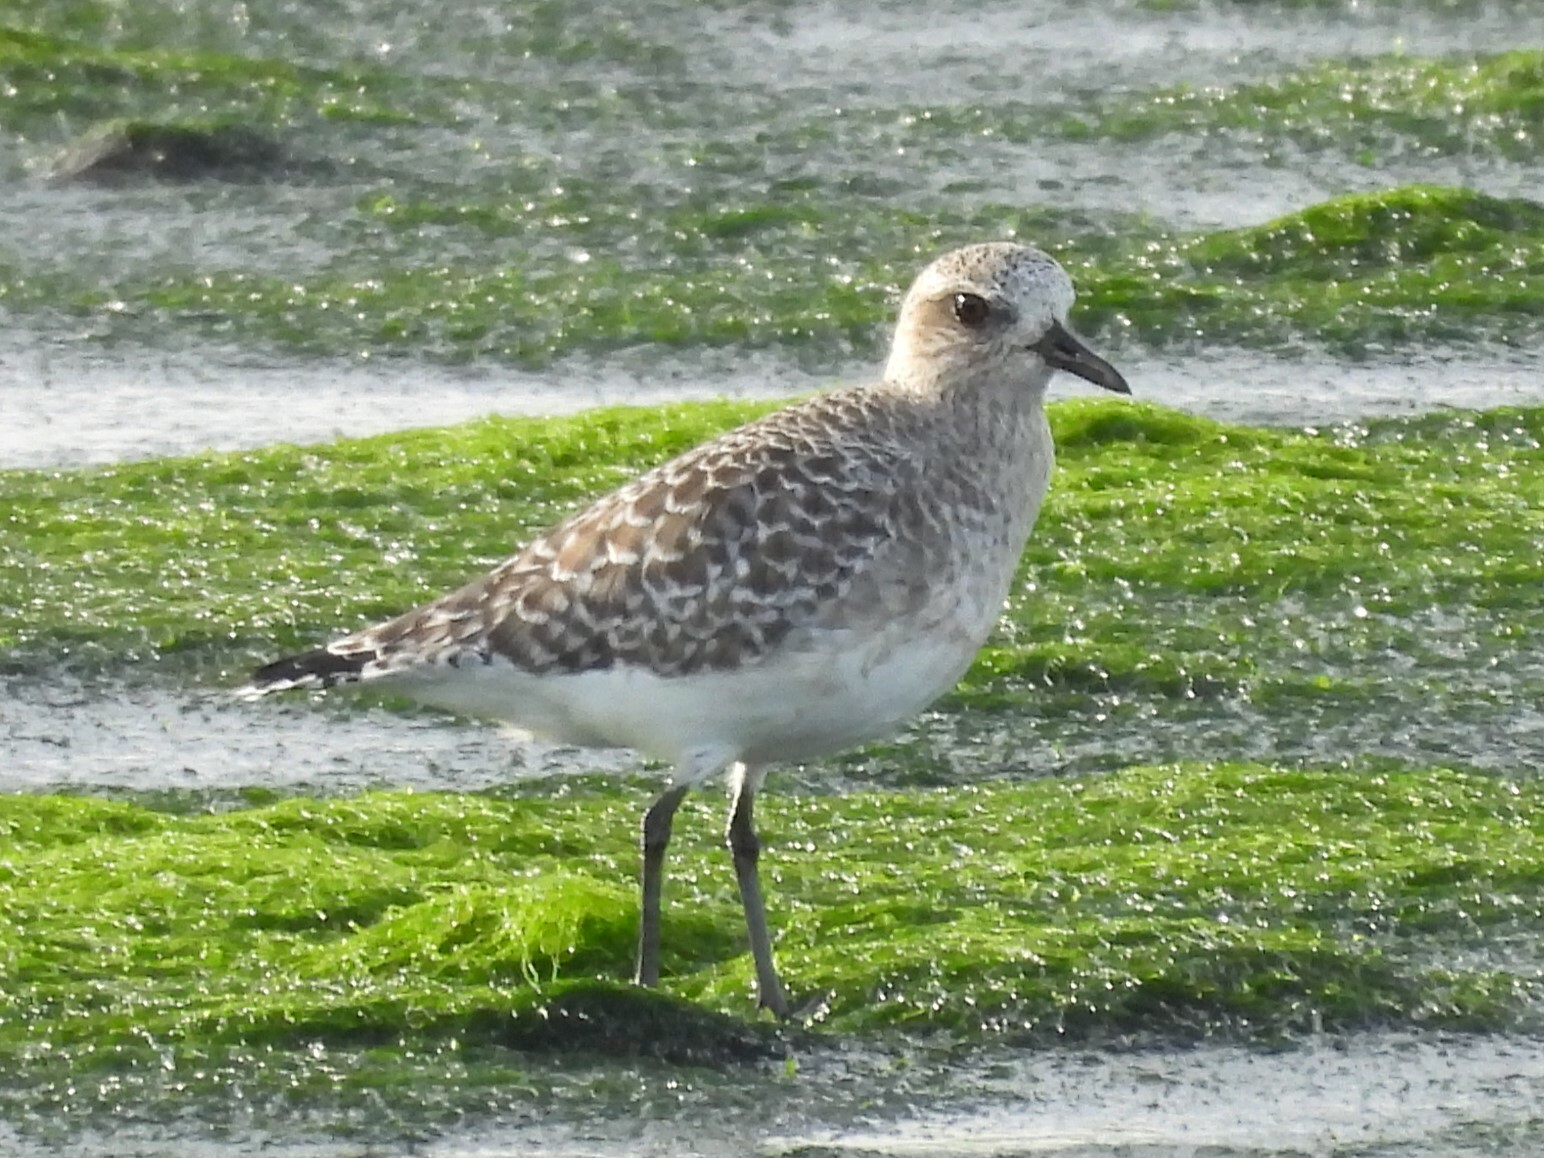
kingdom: Animalia
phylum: Chordata
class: Aves
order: Charadriiformes
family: Charadriidae
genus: Pluvialis
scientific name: Pluvialis squatarola
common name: Grey plover
